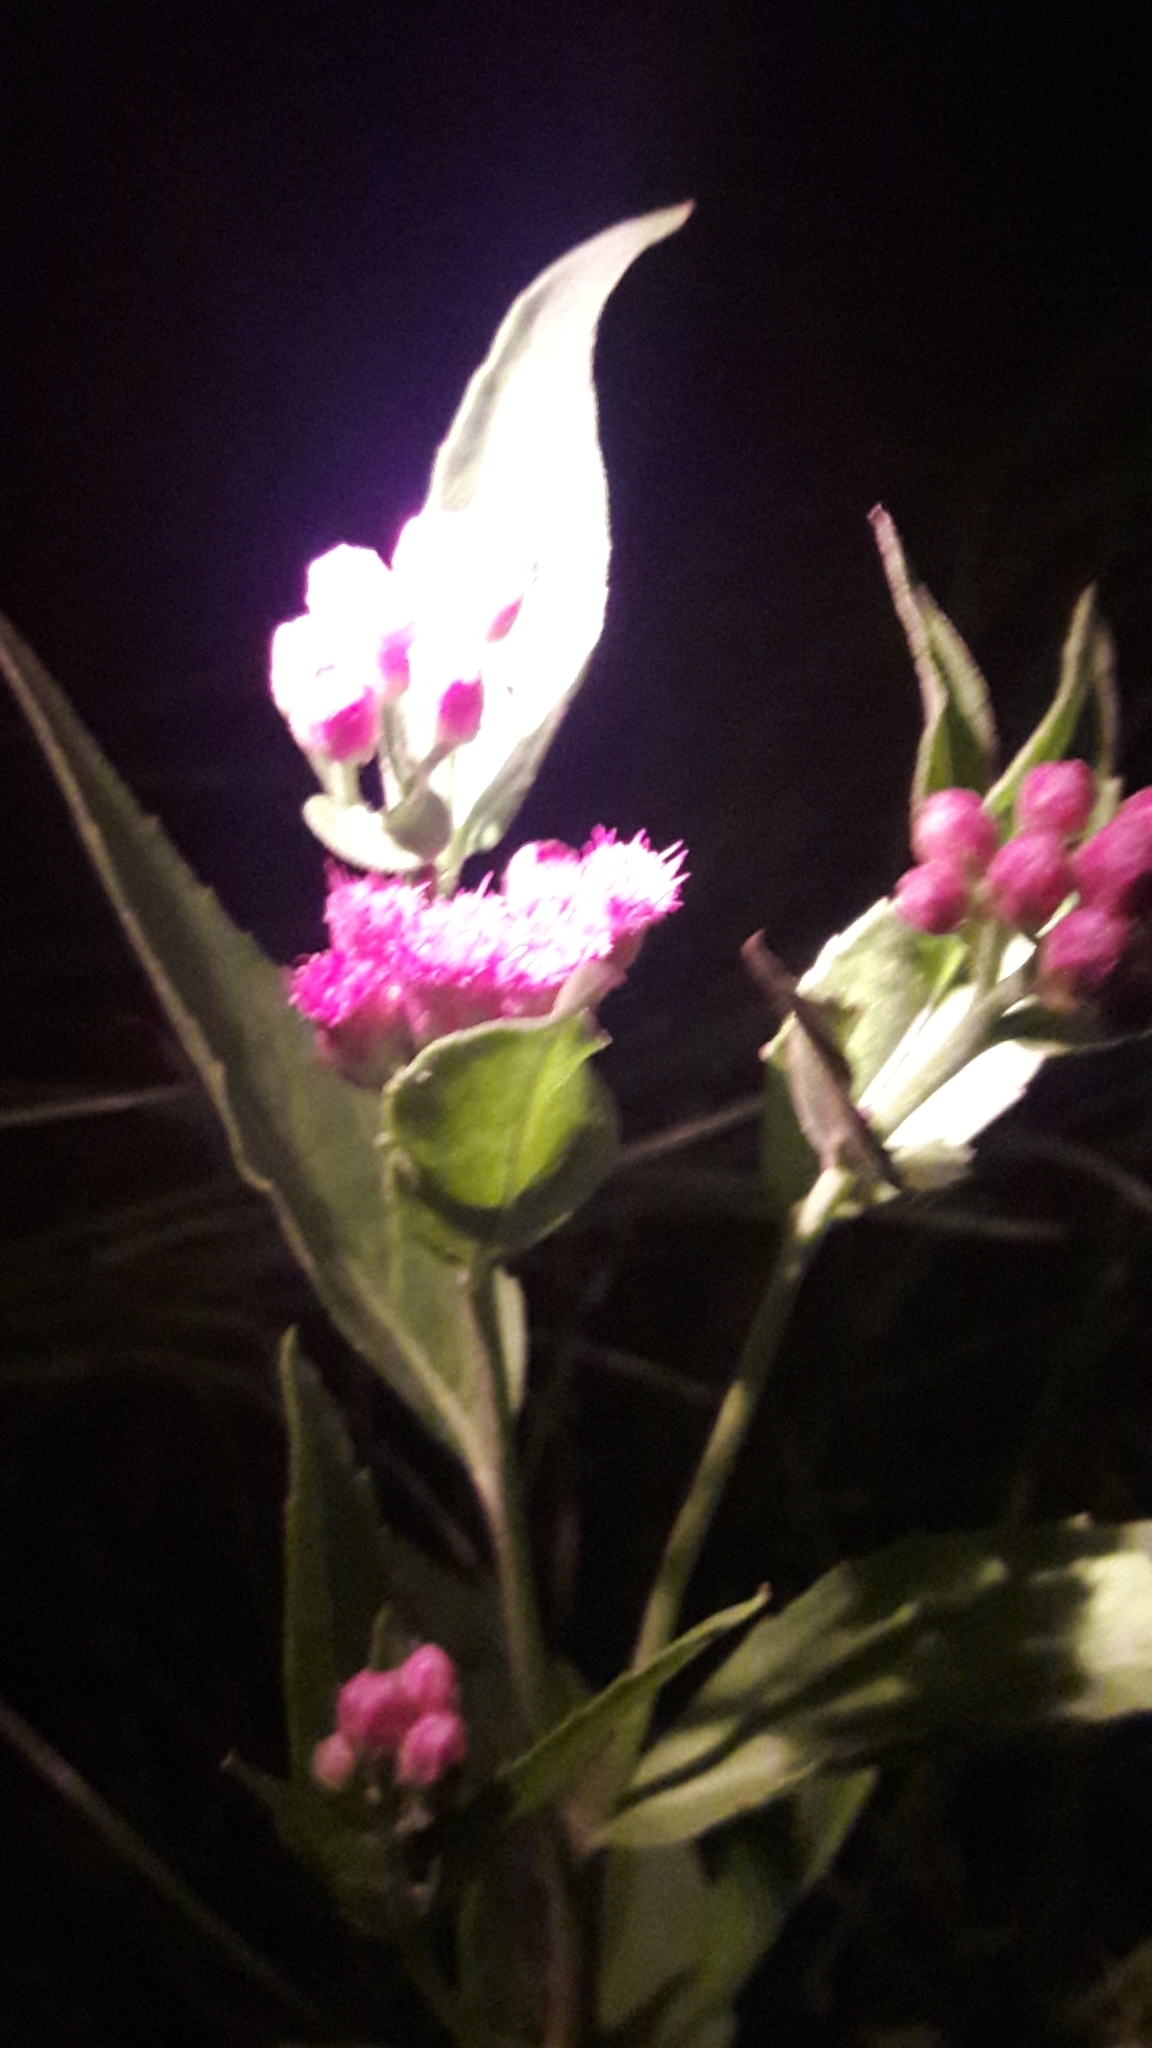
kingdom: Plantae
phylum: Tracheophyta
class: Magnoliopsida
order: Asterales
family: Asteraceae
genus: Pluchea
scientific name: Pluchea odorata
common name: Saltmarsh fleabane
